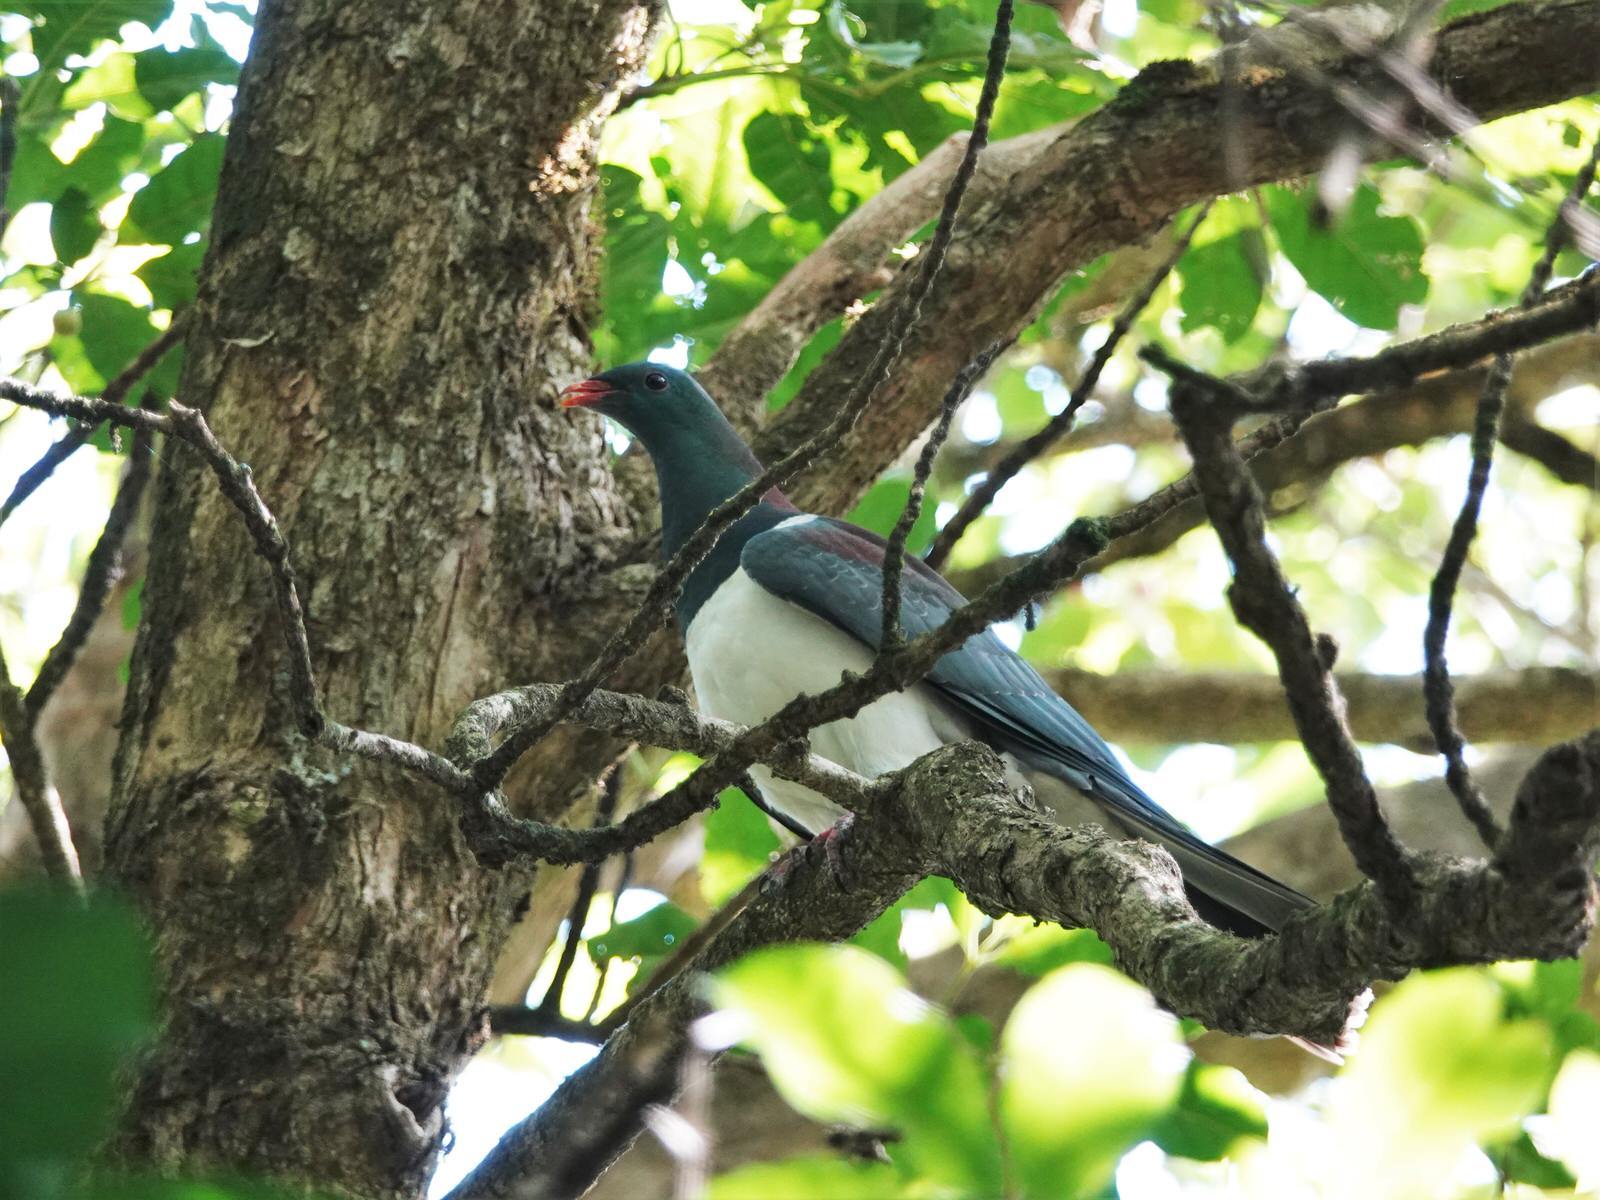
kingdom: Animalia
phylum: Chordata
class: Aves
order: Columbiformes
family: Columbidae
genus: Hemiphaga
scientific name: Hemiphaga novaeseelandiae
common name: New zealand pigeon
